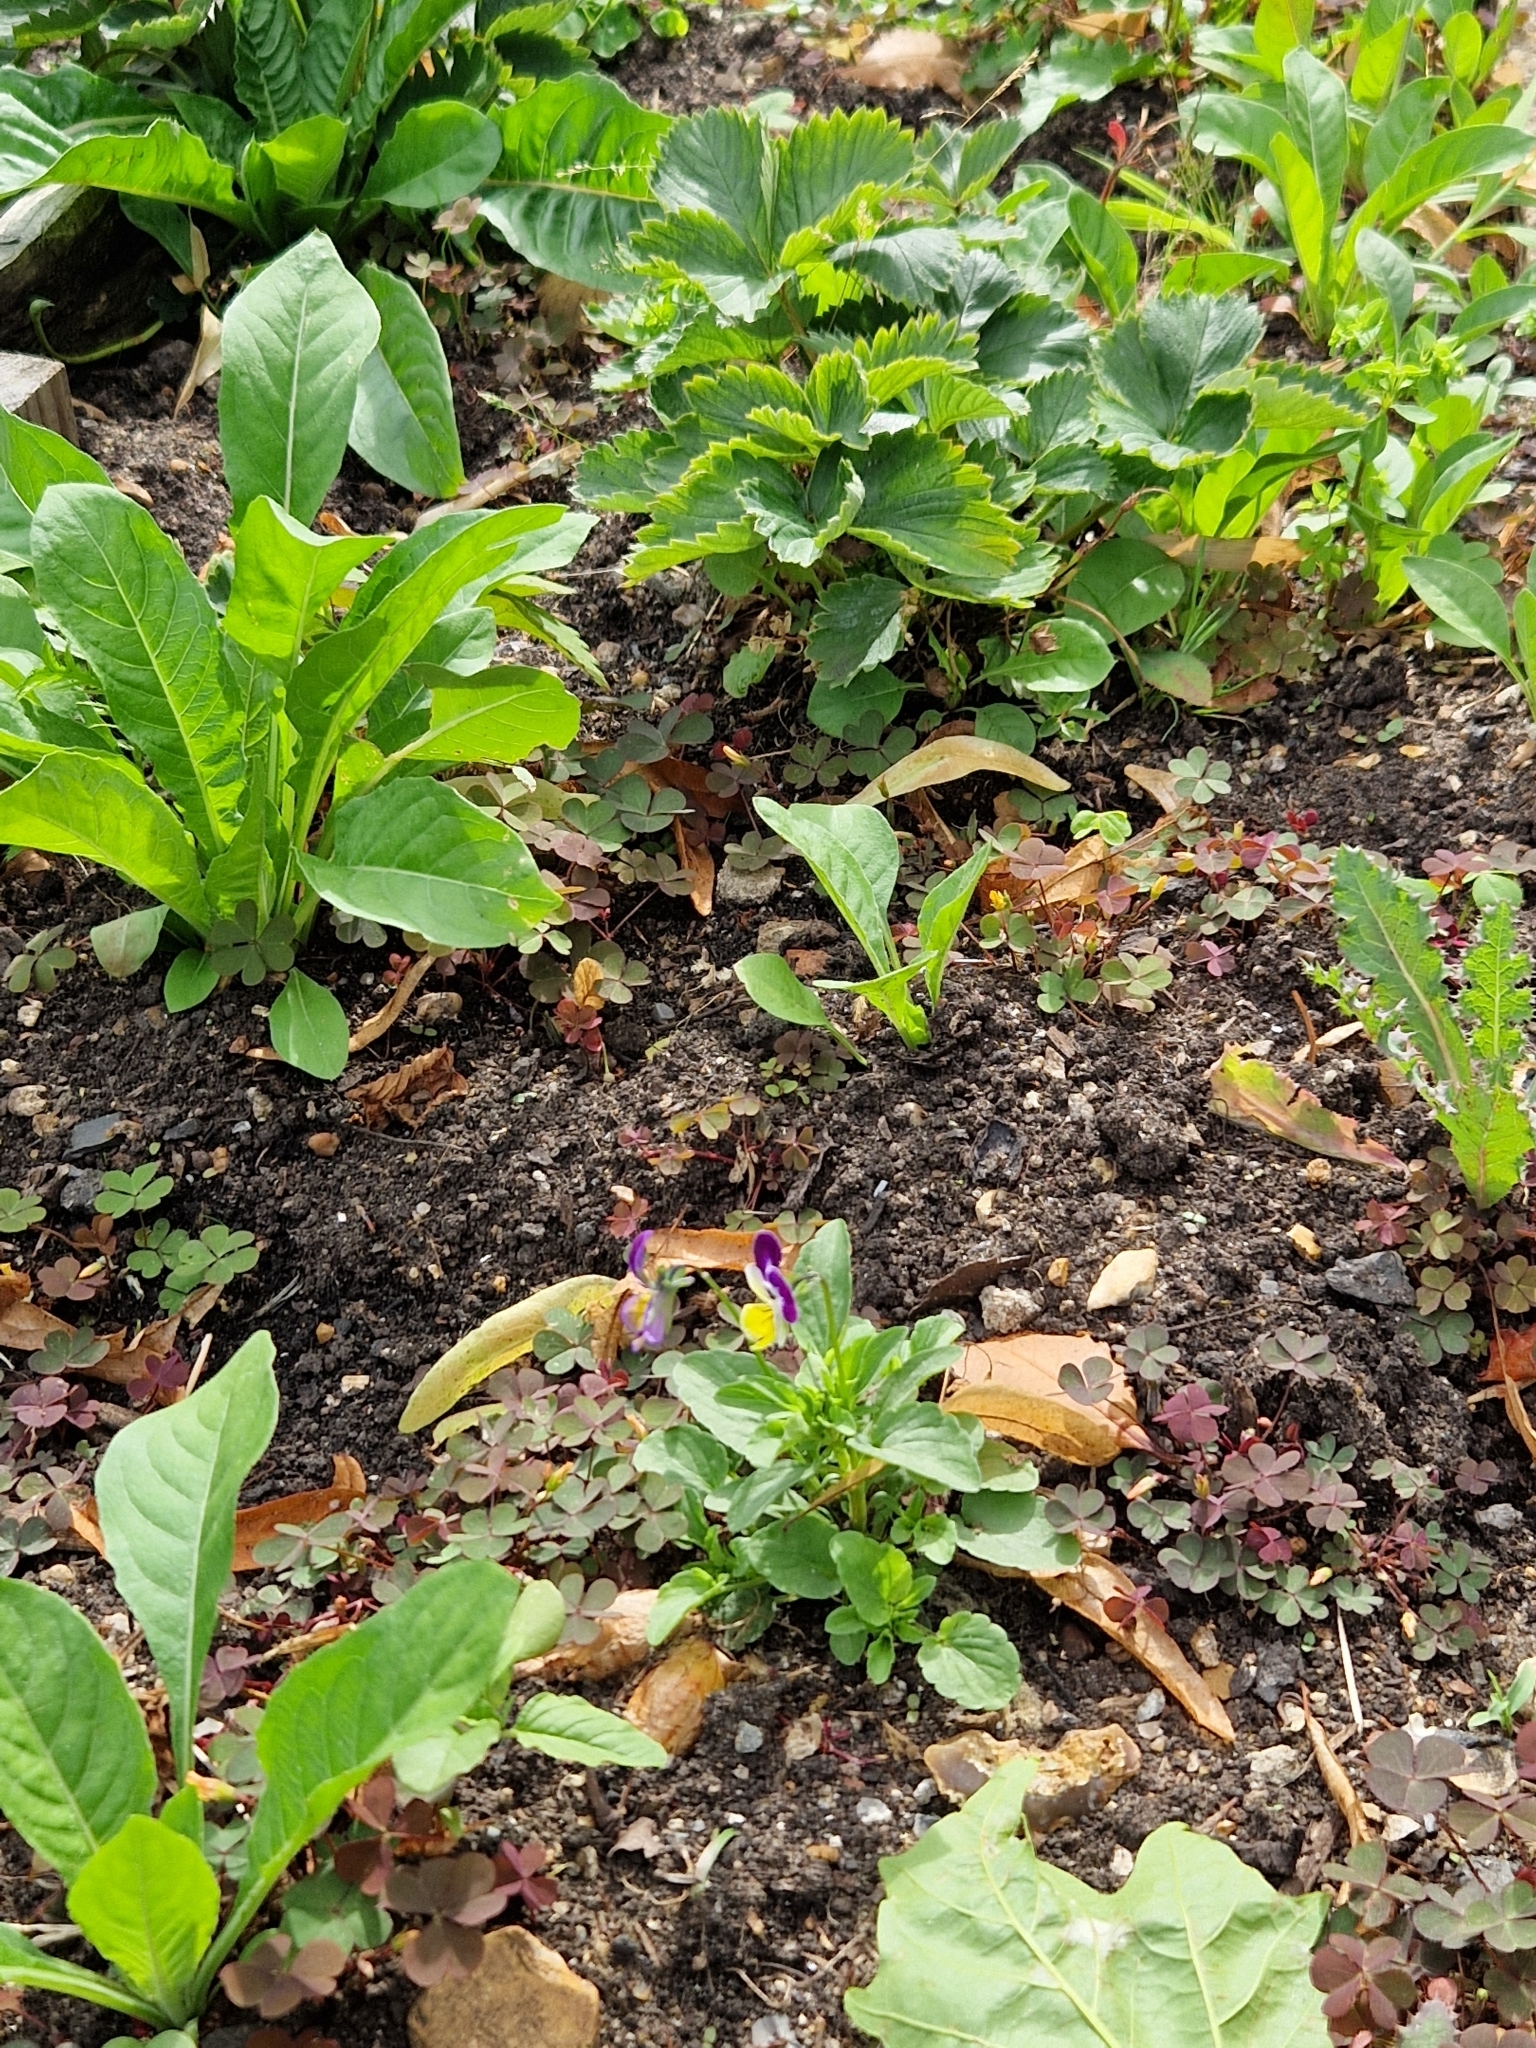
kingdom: Plantae
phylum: Tracheophyta
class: Magnoliopsida
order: Malpighiales
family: Violaceae
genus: Viola
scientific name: Viola williamsii
